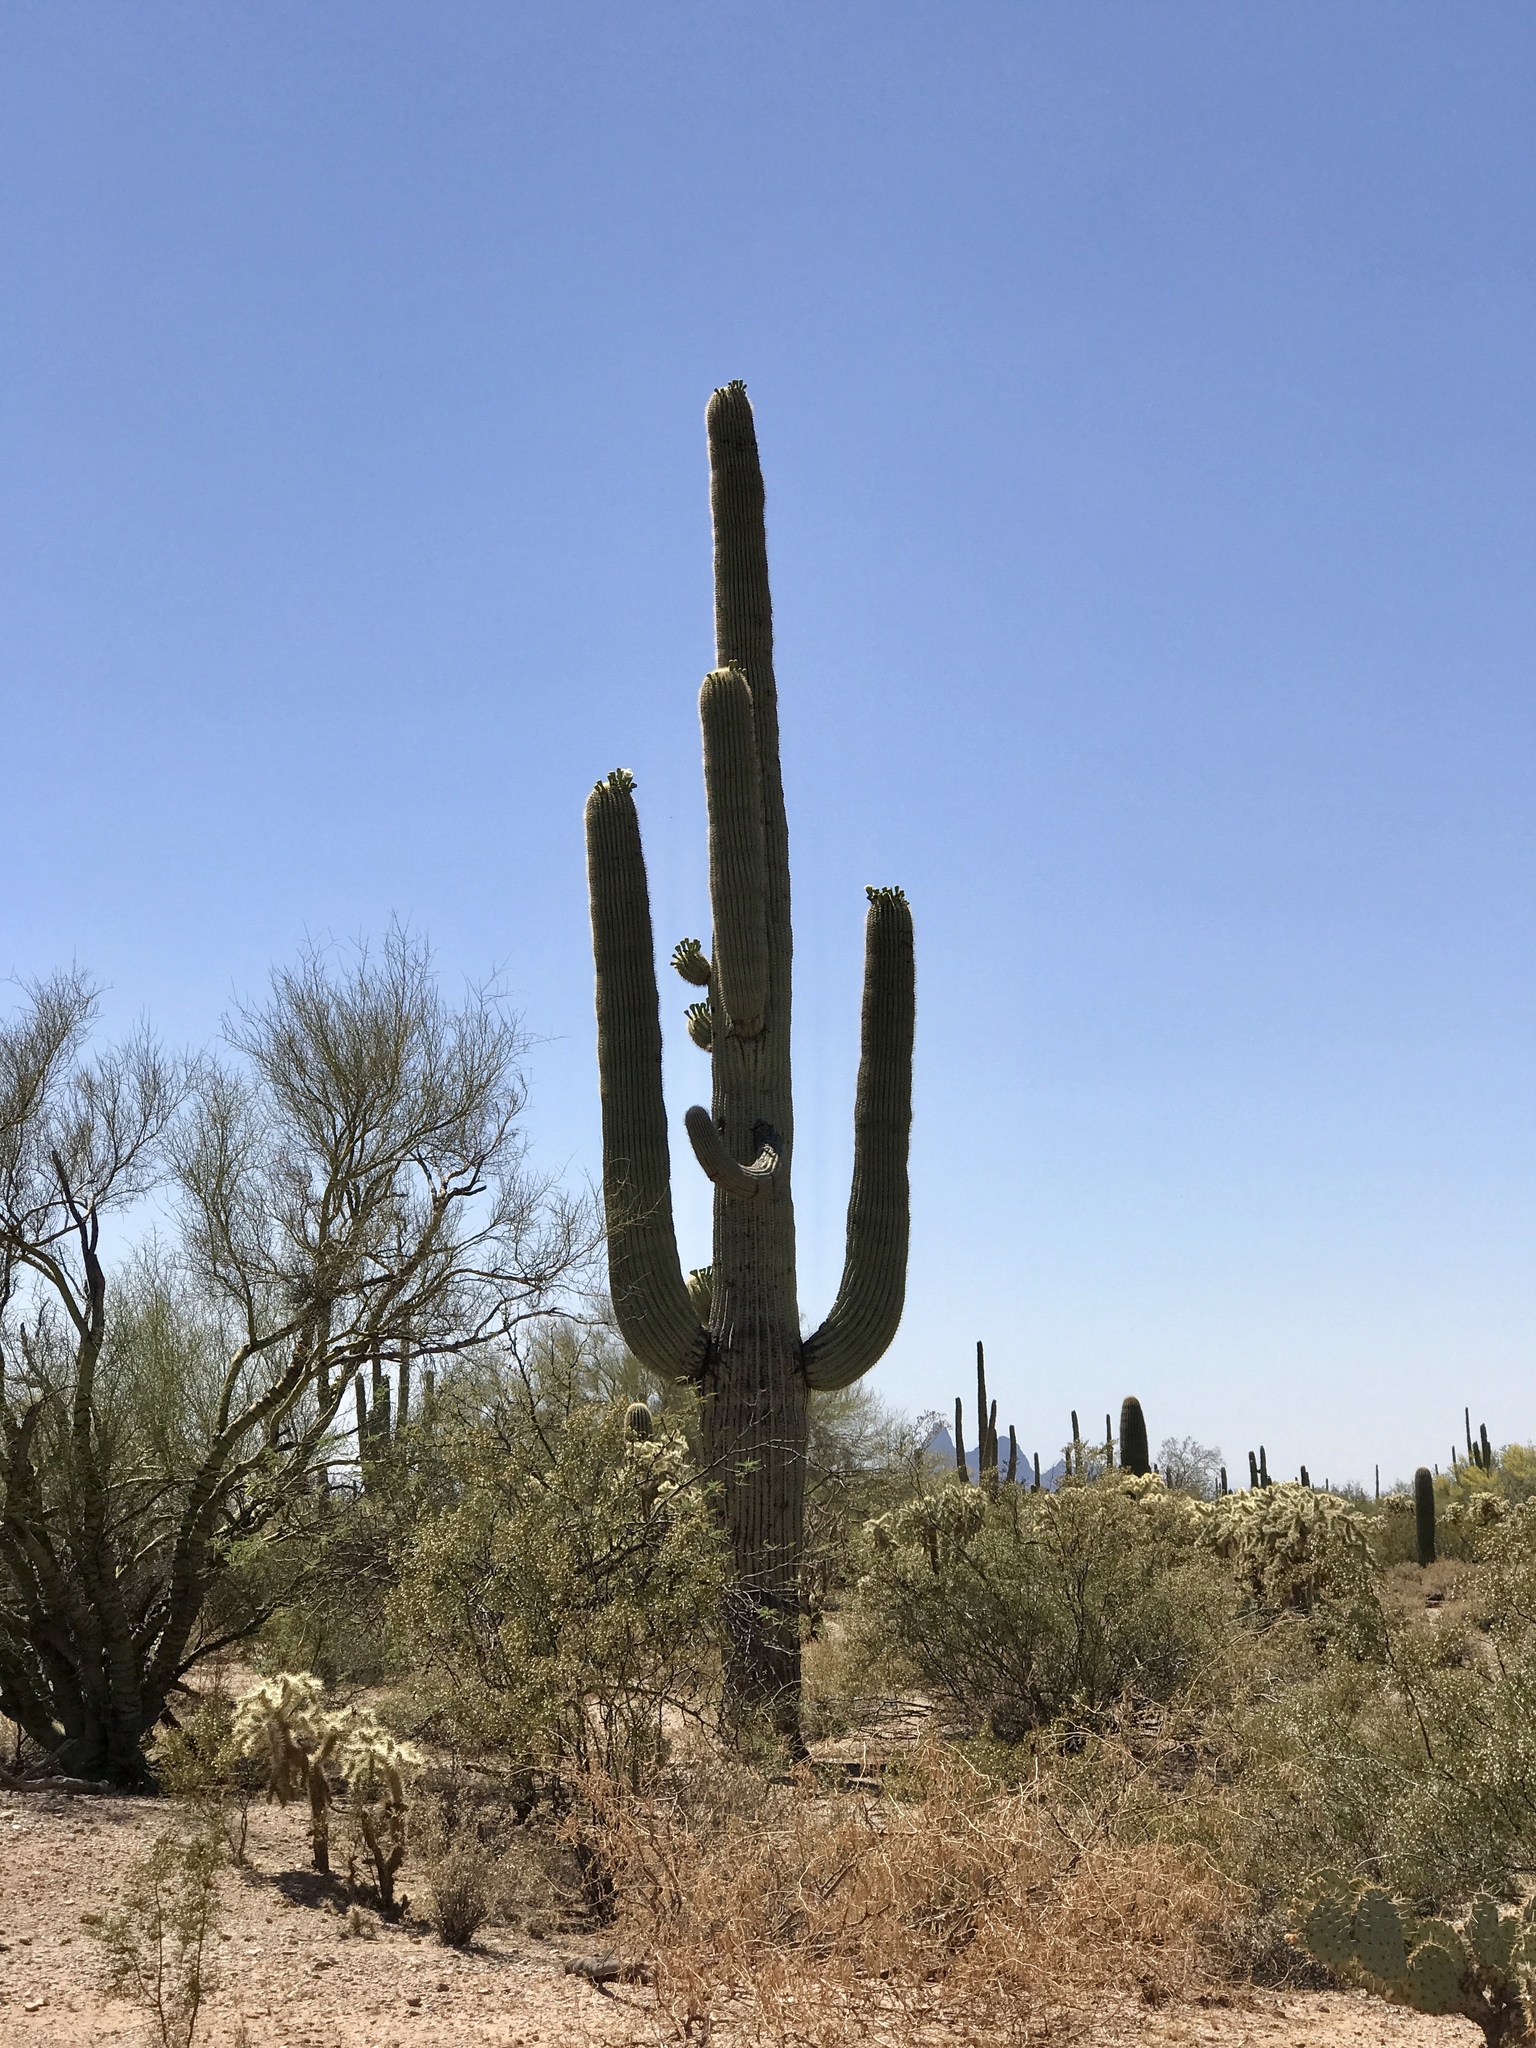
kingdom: Plantae
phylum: Tracheophyta
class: Magnoliopsida
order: Caryophyllales
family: Cactaceae
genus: Carnegiea
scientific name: Carnegiea gigantea
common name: Saguaro
